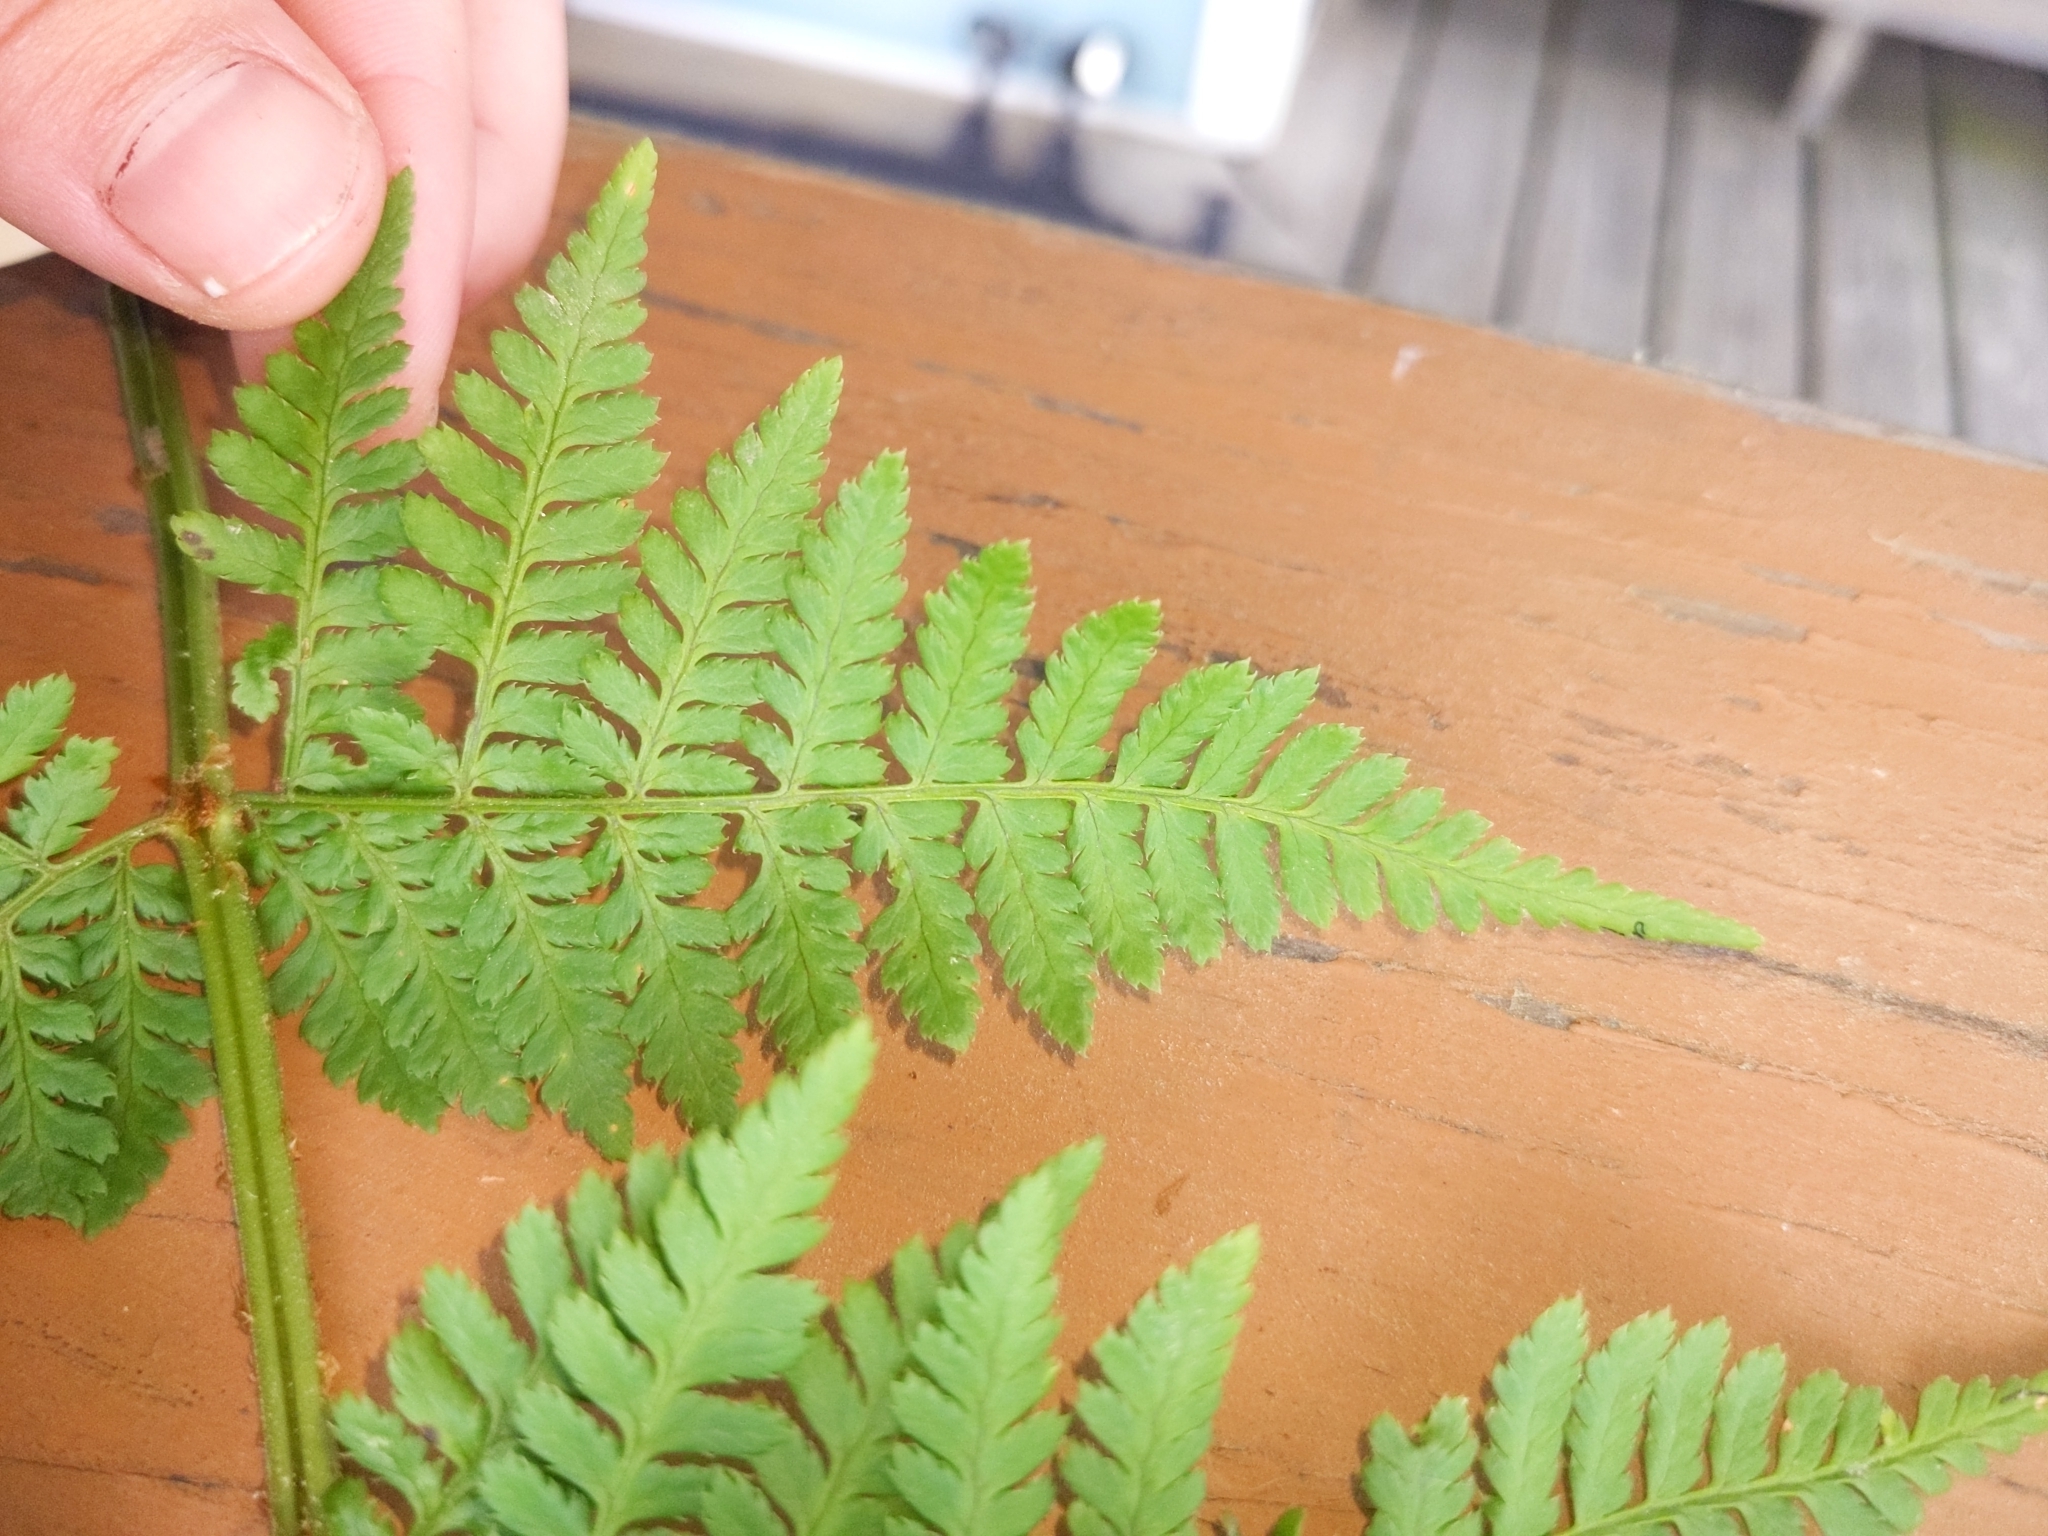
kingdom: Plantae
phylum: Tracheophyta
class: Polypodiopsida
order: Polypodiales
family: Dryopteridaceae
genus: Dryopteris
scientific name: Dryopteris carthusiana
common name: Narrow buckler-fern
